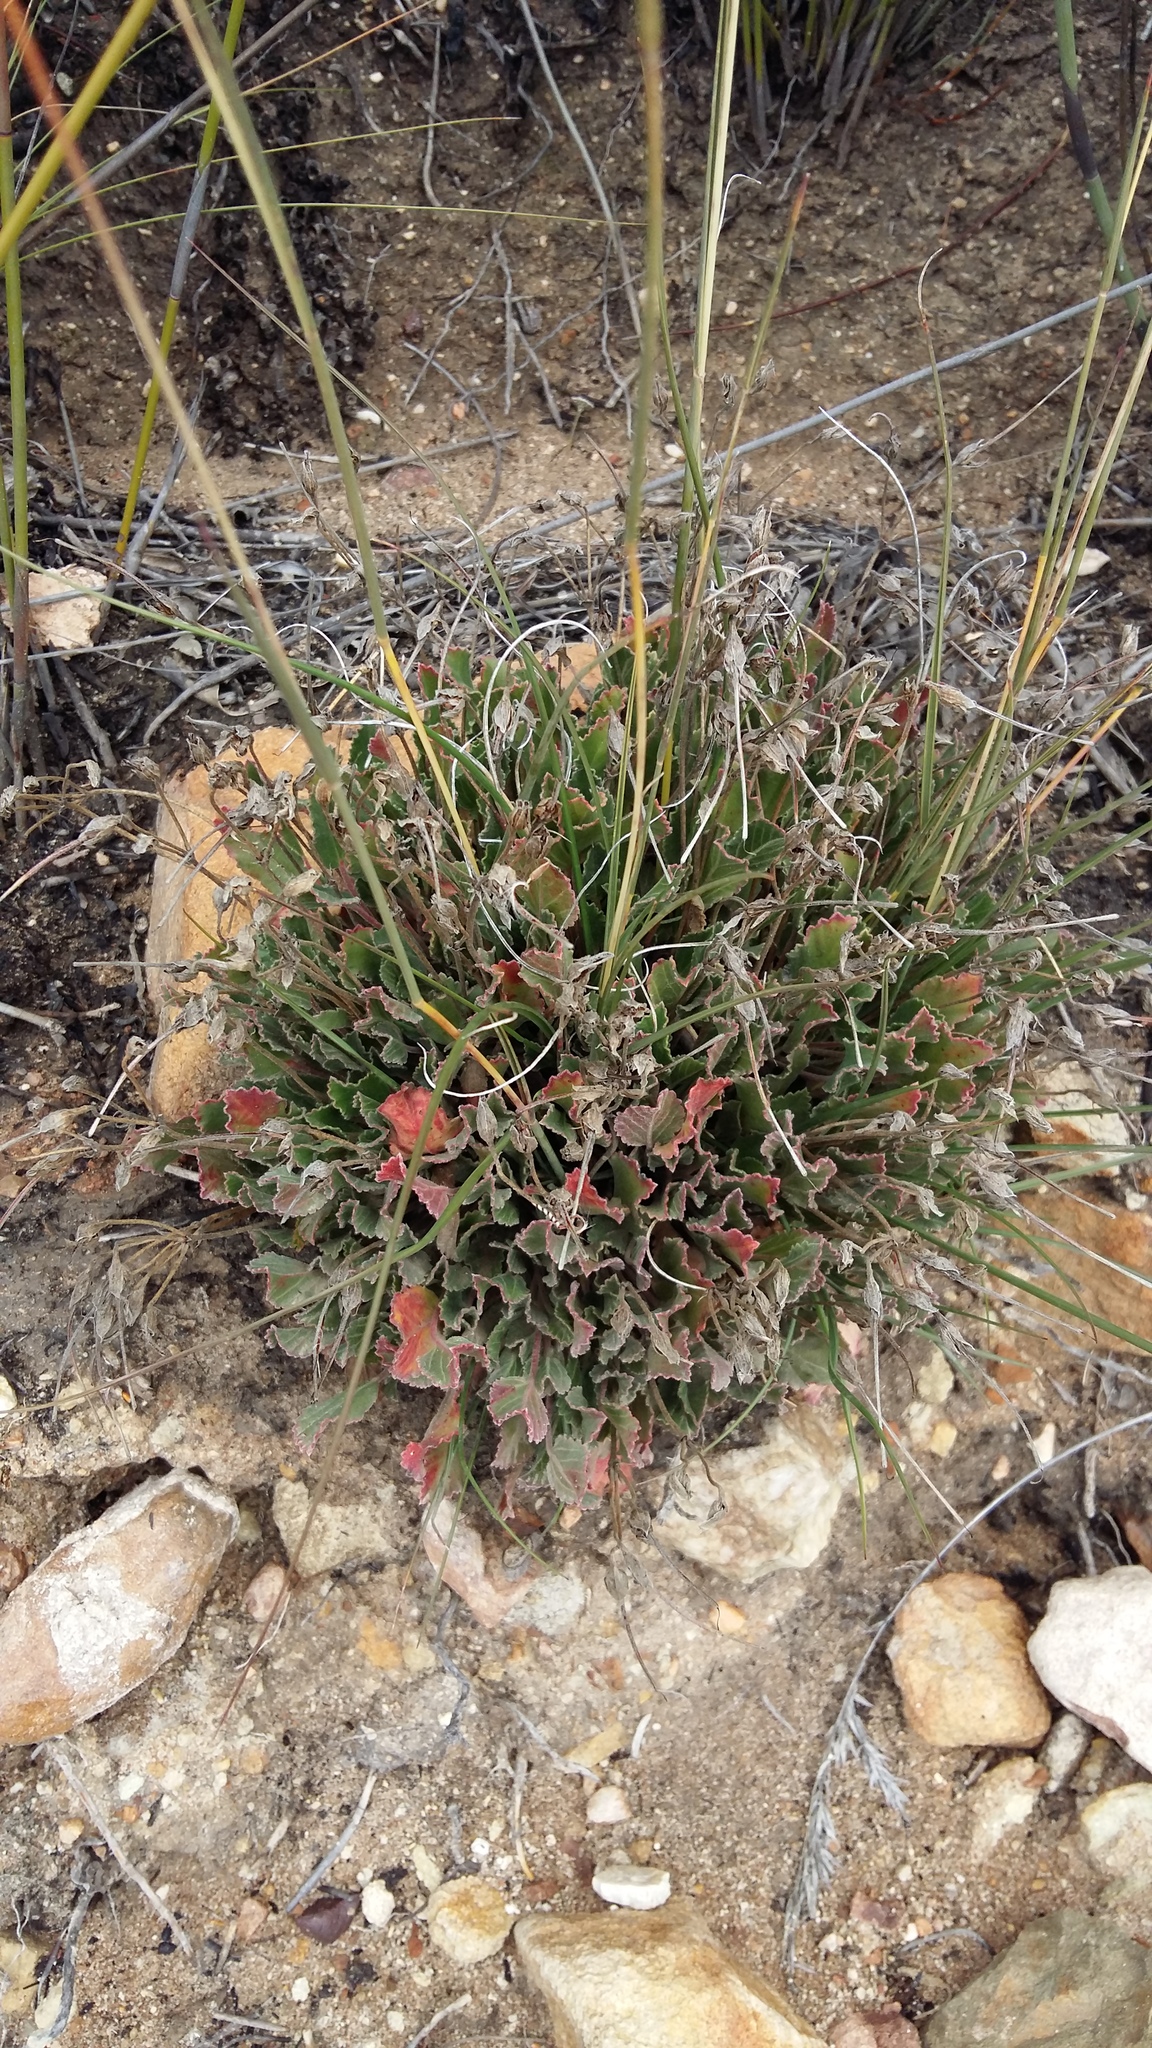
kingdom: Plantae
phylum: Tracheophyta
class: Magnoliopsida
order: Geraniales
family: Geraniaceae
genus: Pelargonium
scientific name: Pelargonium ovale
